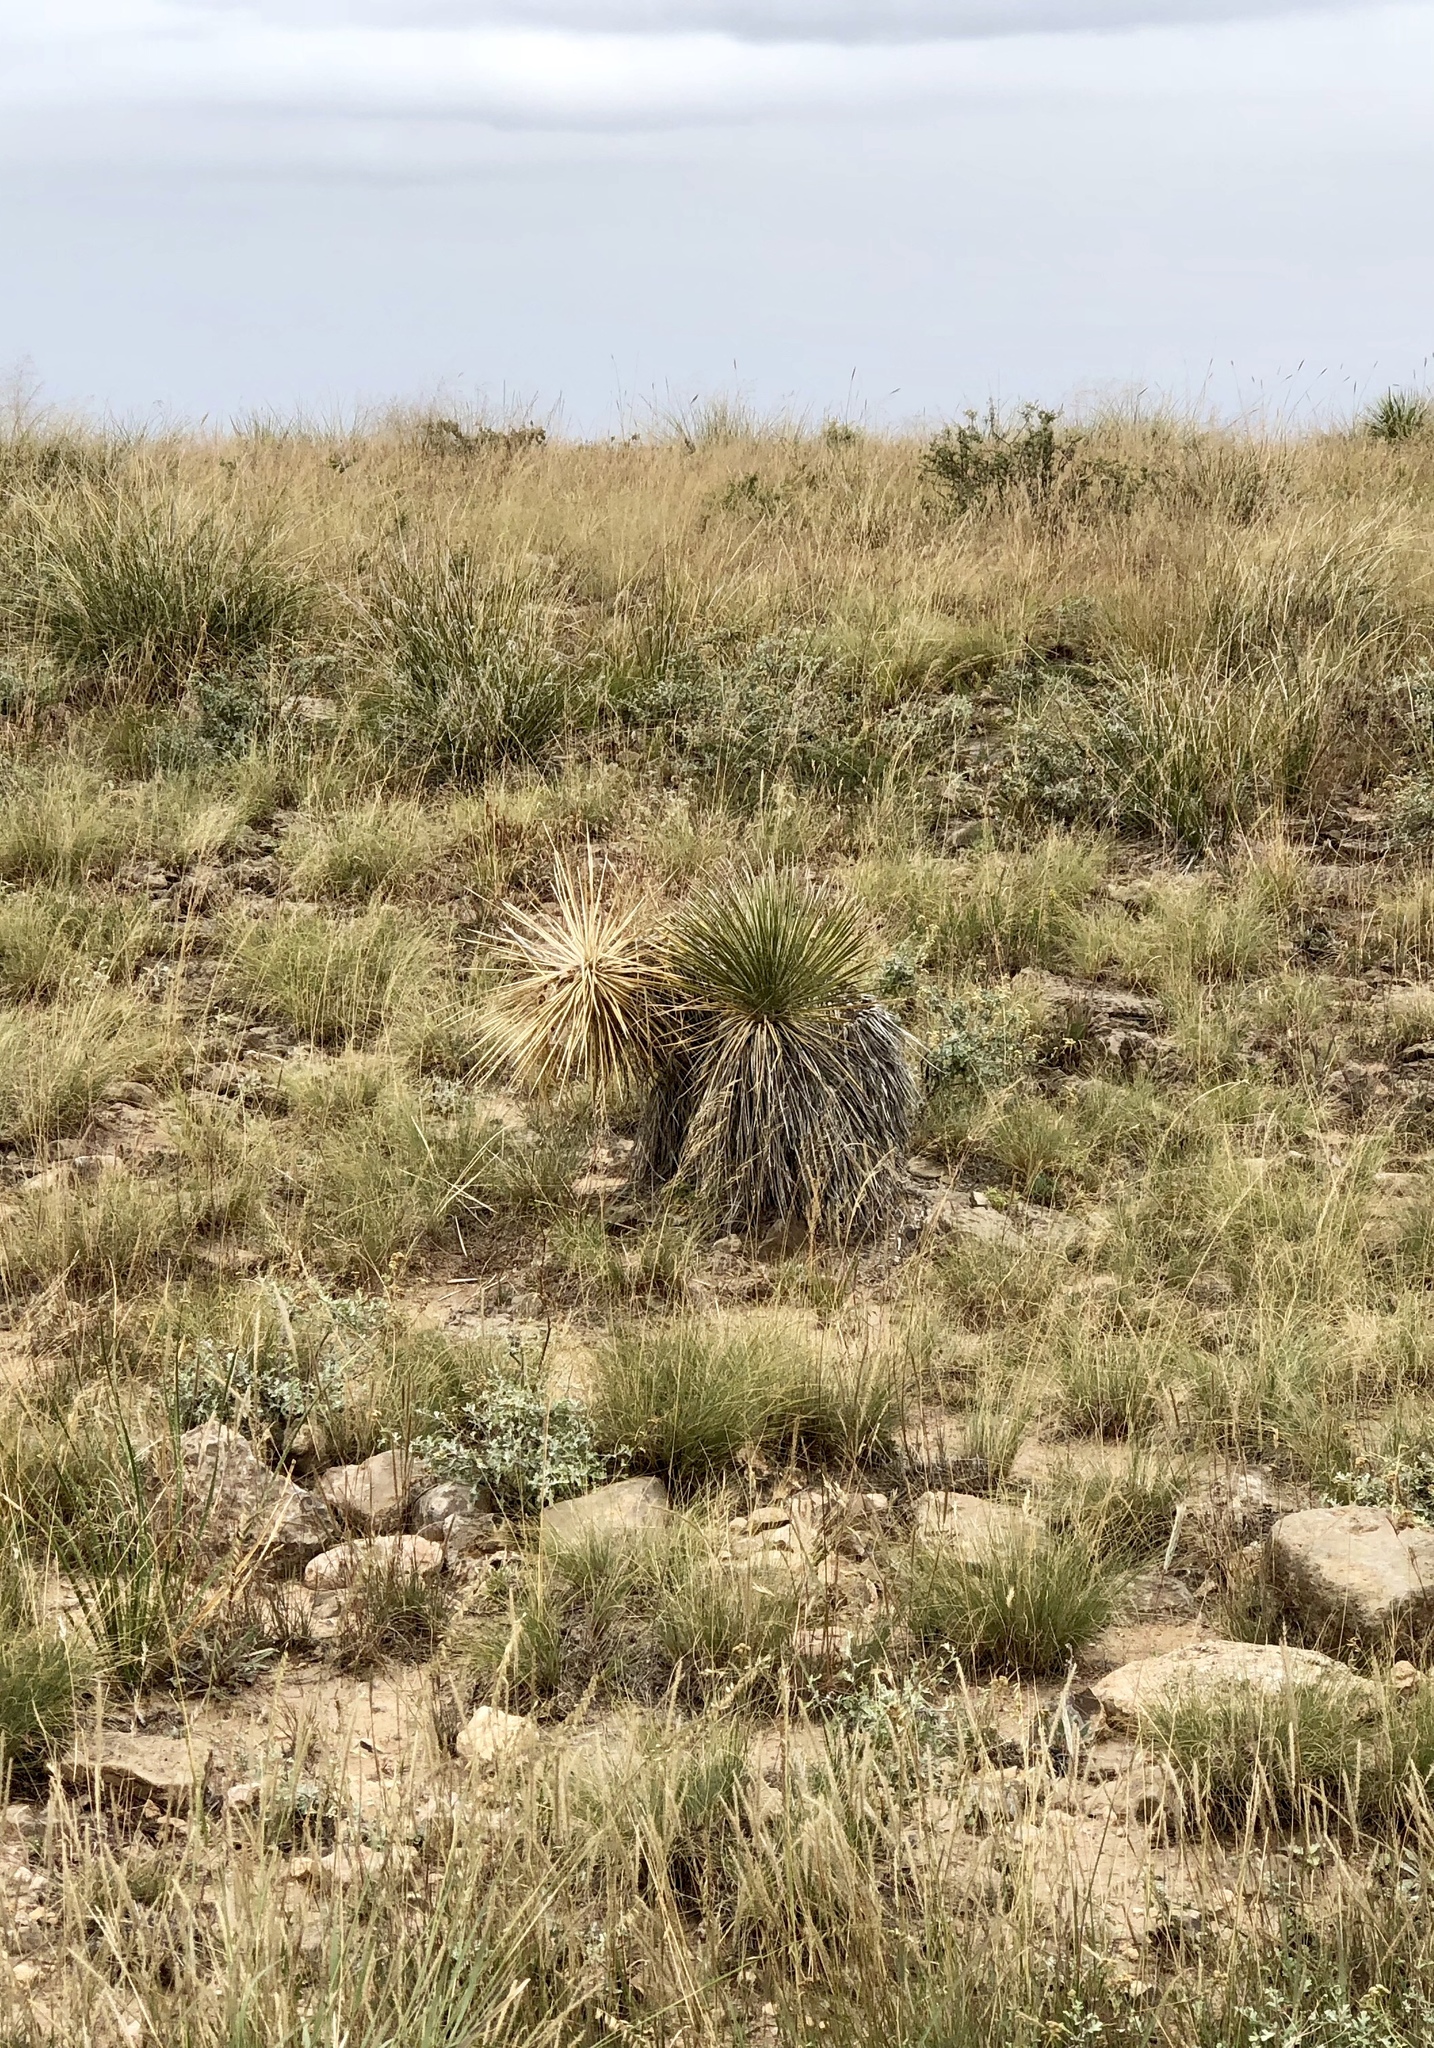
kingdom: Plantae
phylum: Tracheophyta
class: Liliopsida
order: Asparagales
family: Asparagaceae
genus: Yucca
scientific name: Yucca elata
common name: Palmella
